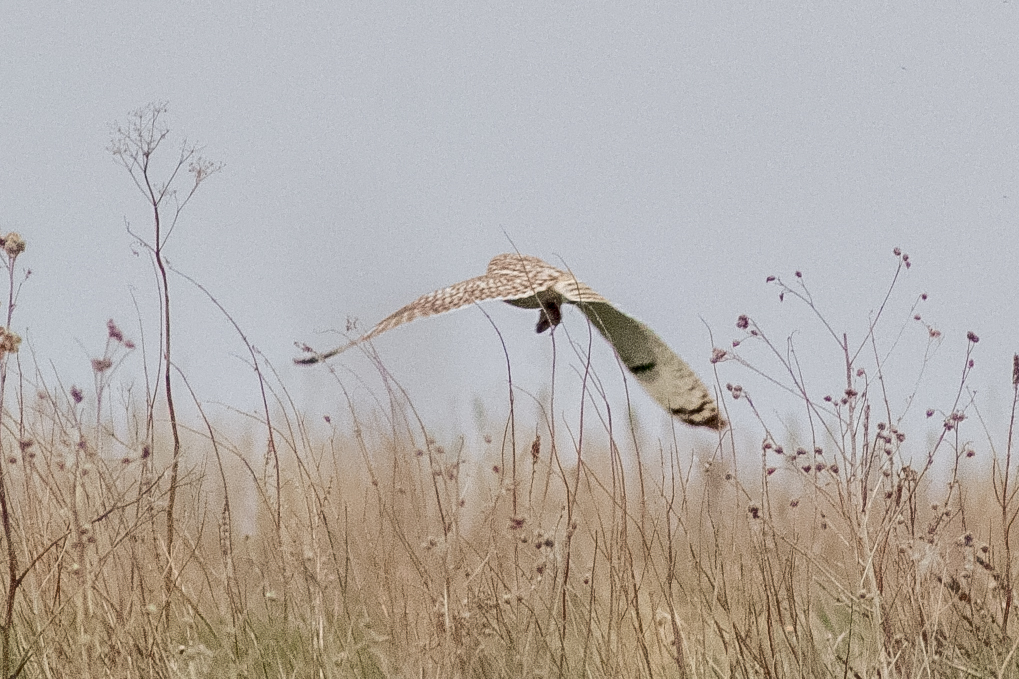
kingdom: Animalia
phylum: Chordata
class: Aves
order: Strigiformes
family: Strigidae
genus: Asio
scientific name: Asio flammeus
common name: Short-eared owl
